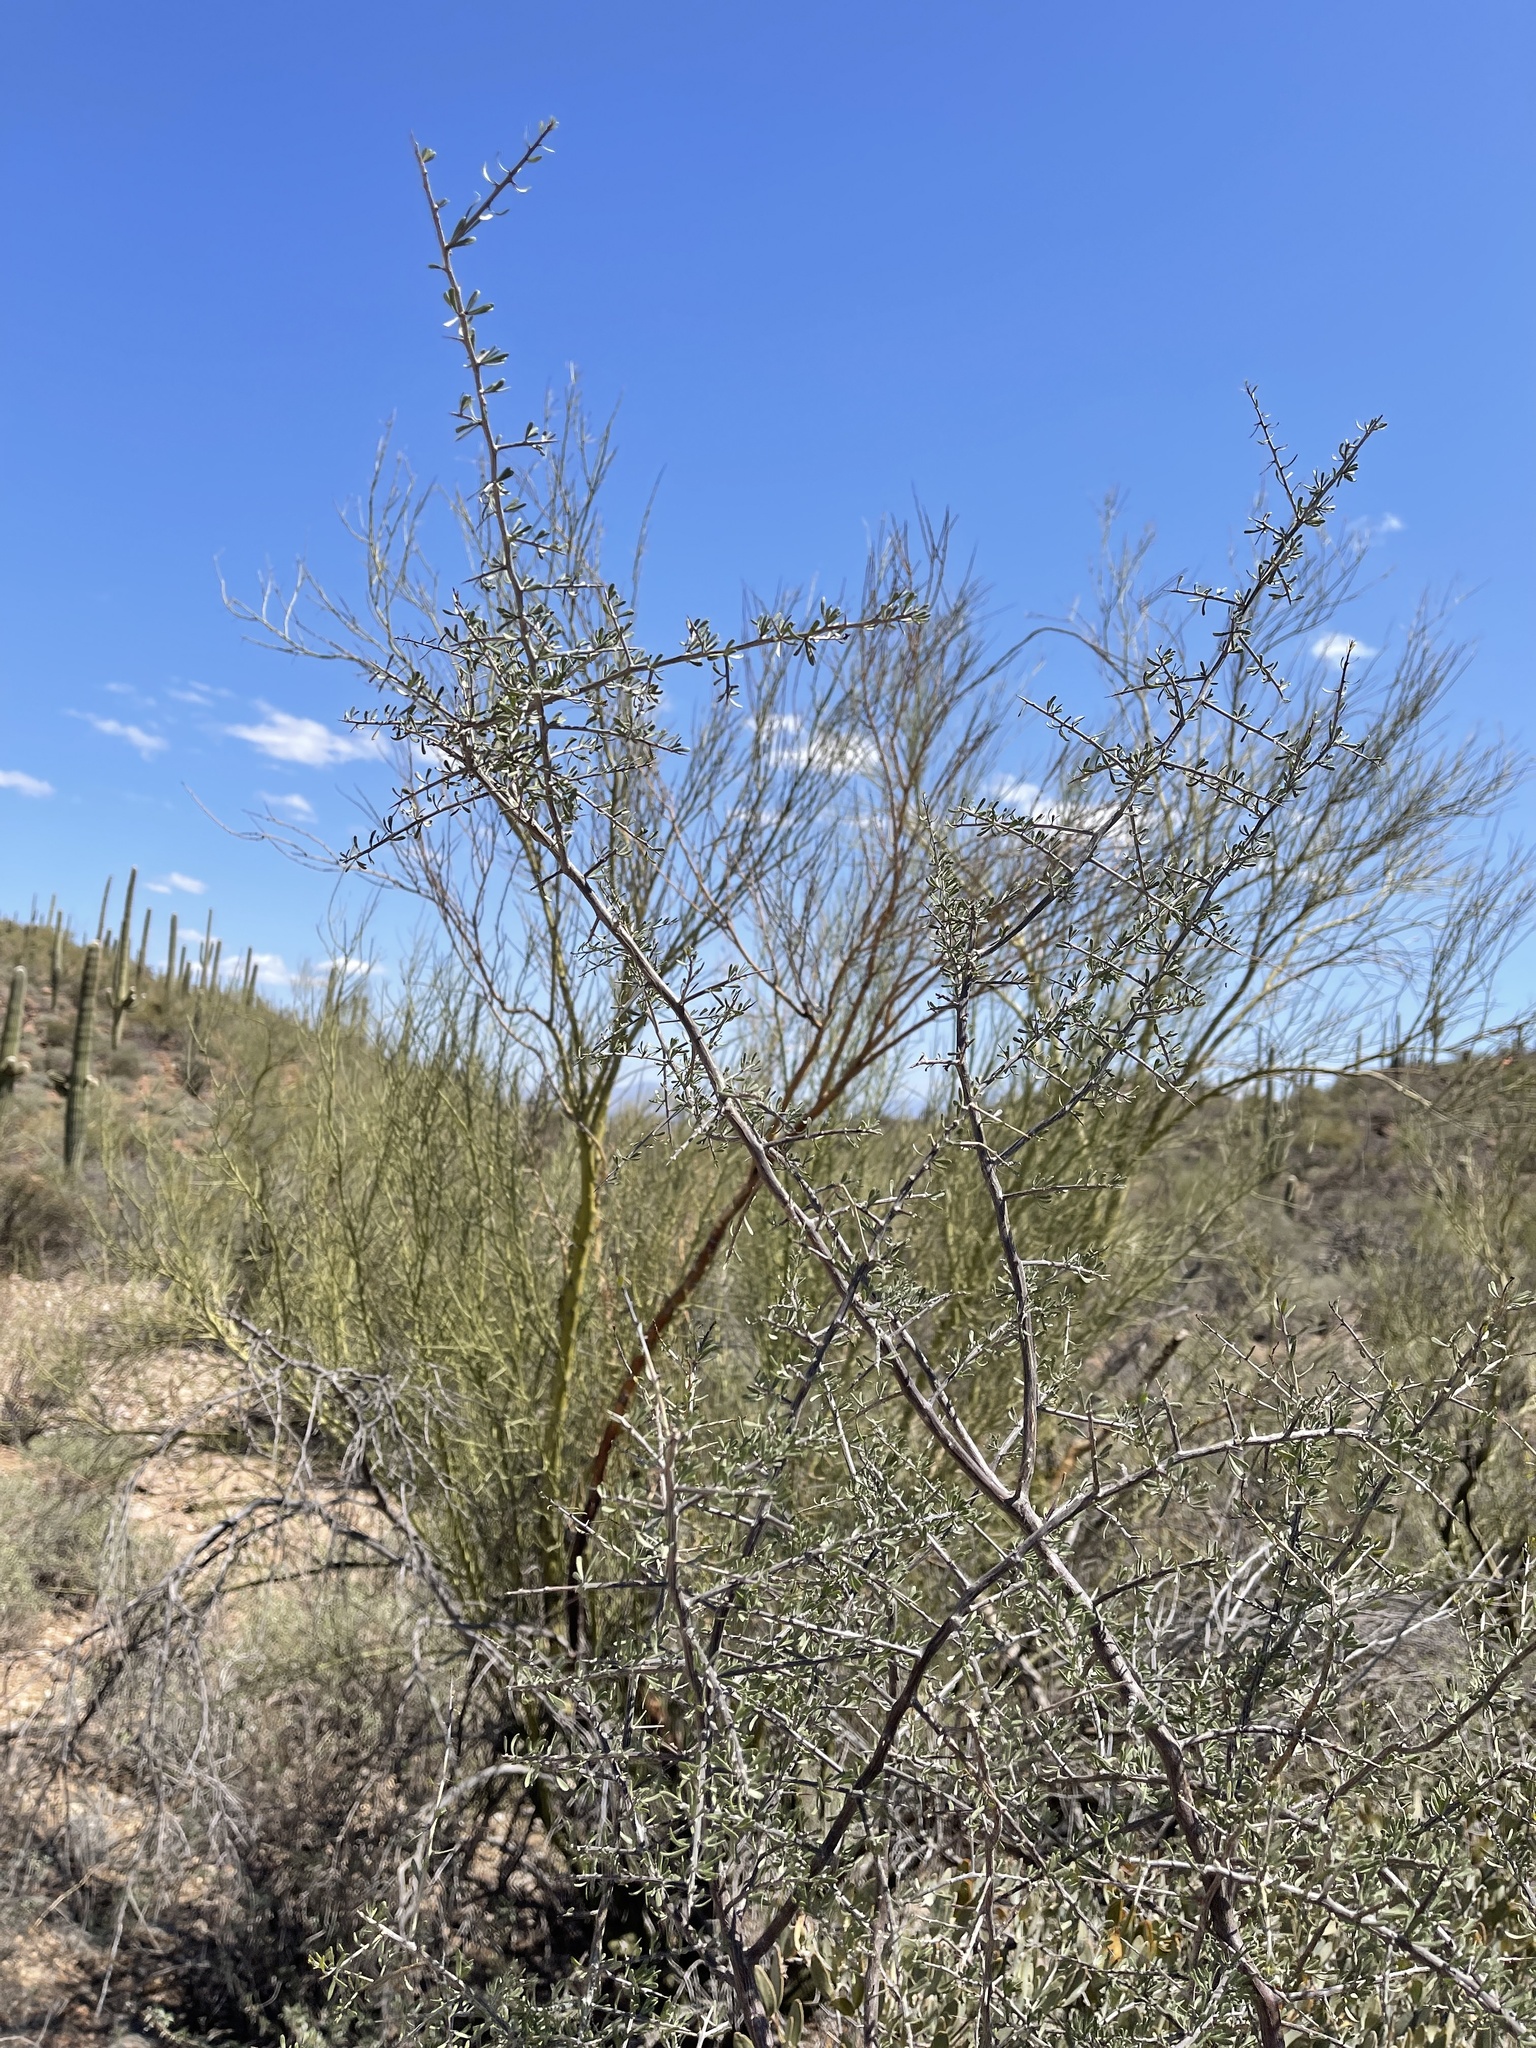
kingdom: Plantae
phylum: Tracheophyta
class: Magnoliopsida
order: Fabales
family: Fabaceae
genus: Parkinsonia
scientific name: Parkinsonia microphylla
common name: Yellow paloverde
